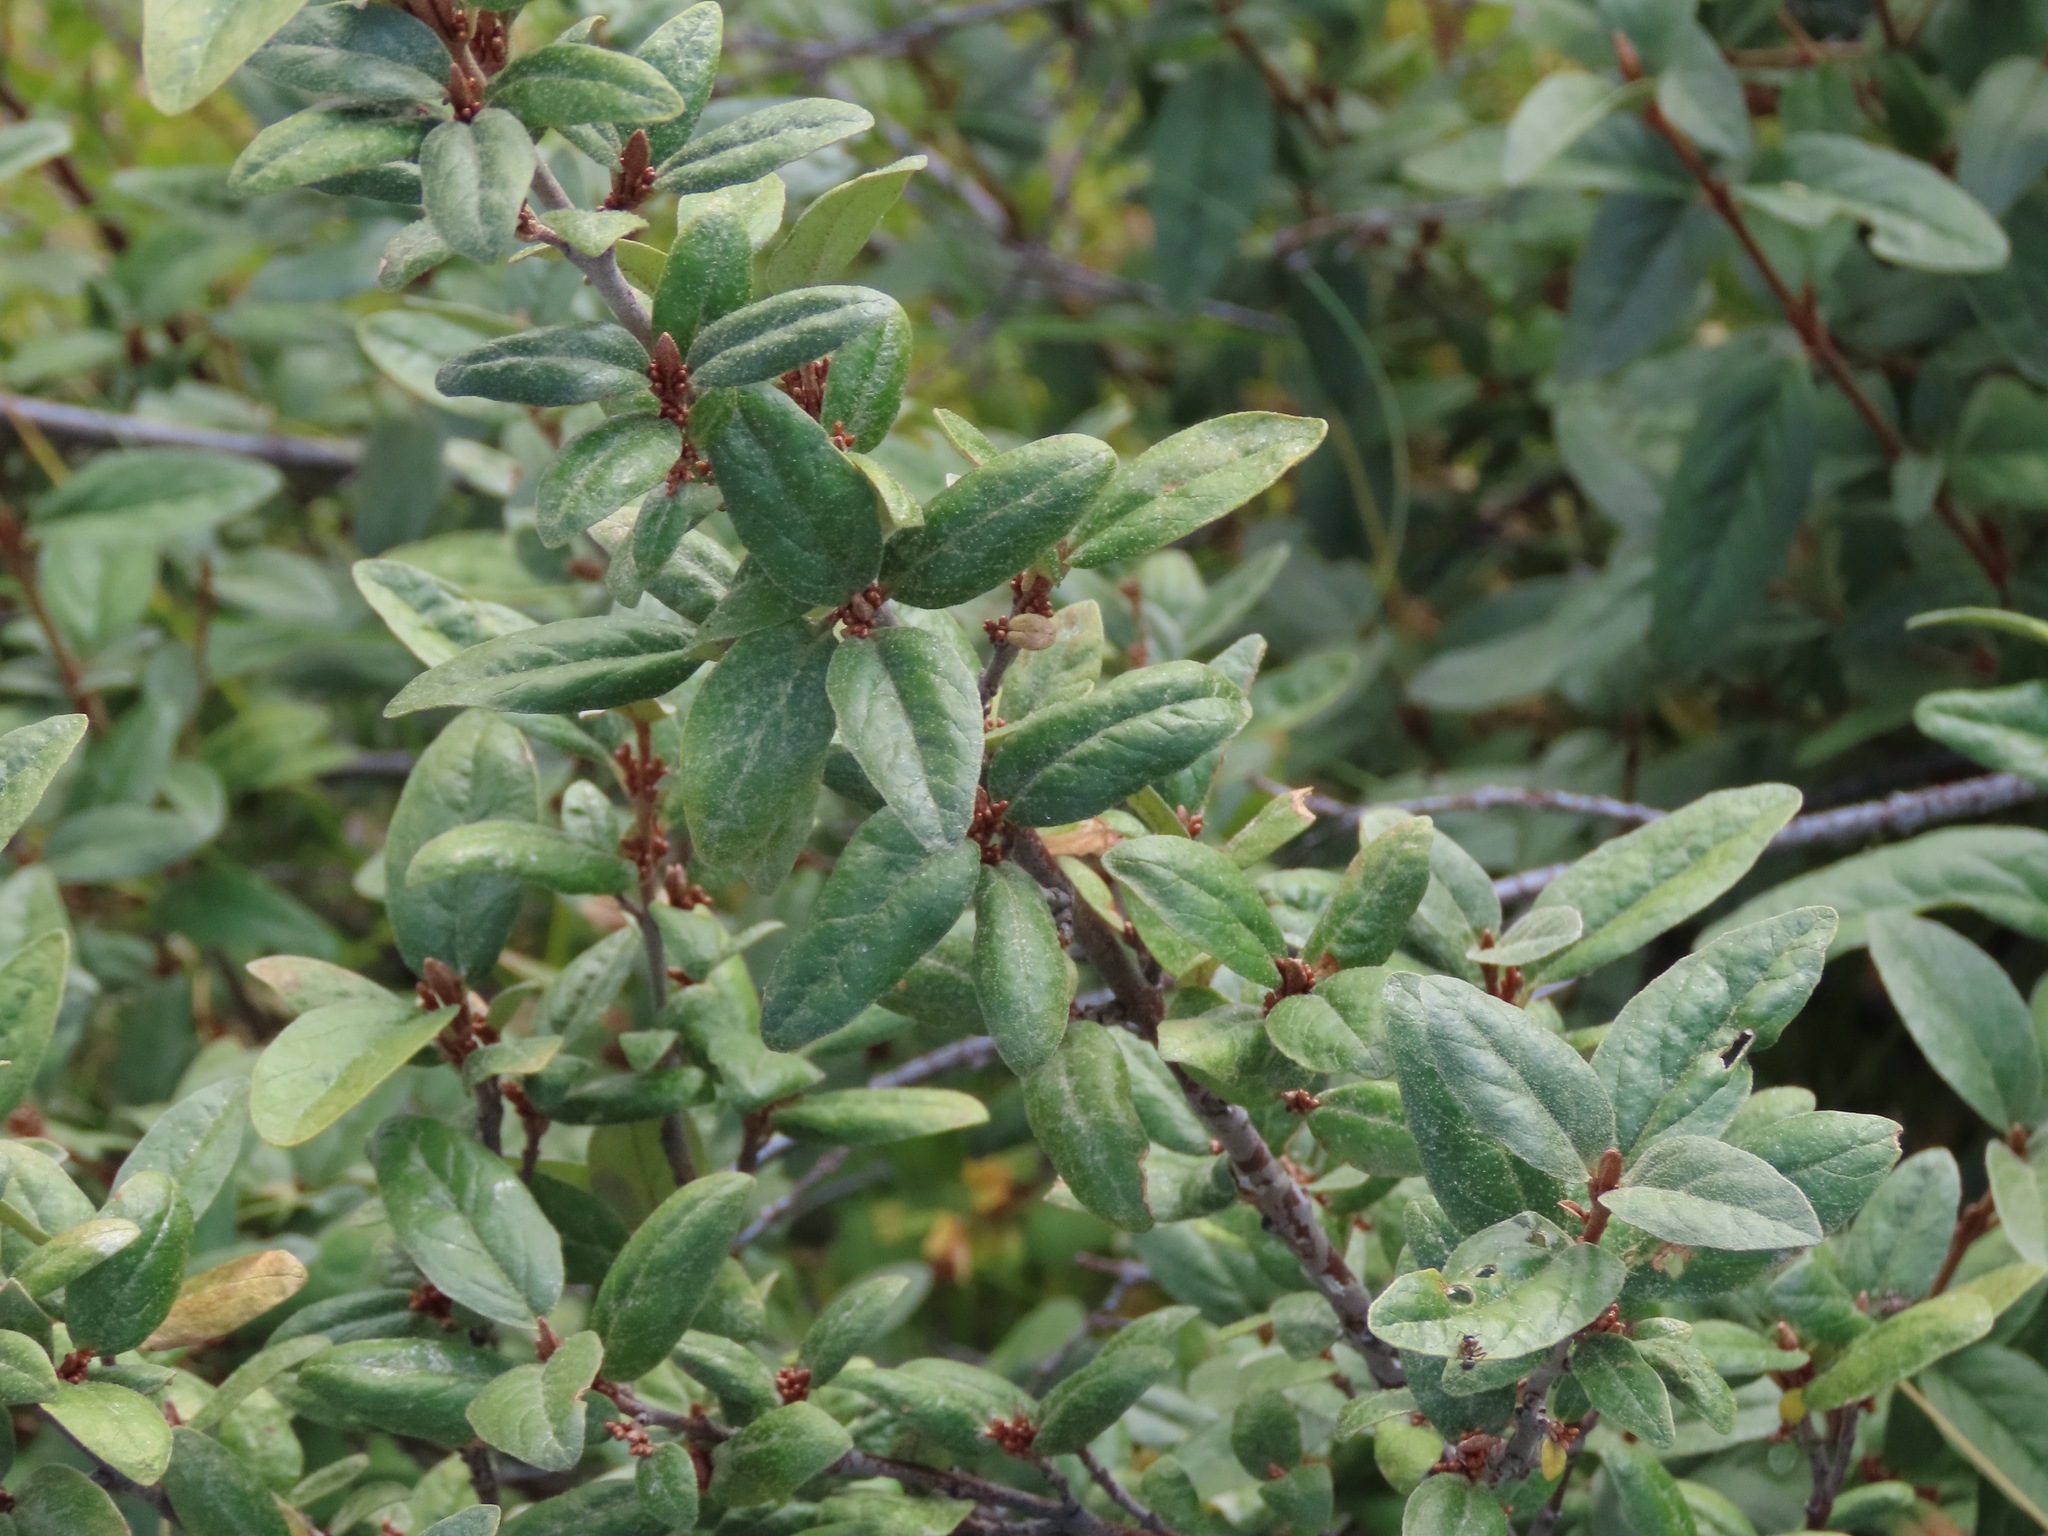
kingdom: Plantae
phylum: Tracheophyta
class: Magnoliopsida
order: Rosales
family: Elaeagnaceae
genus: Shepherdia
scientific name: Shepherdia canadensis
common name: Soapberry
